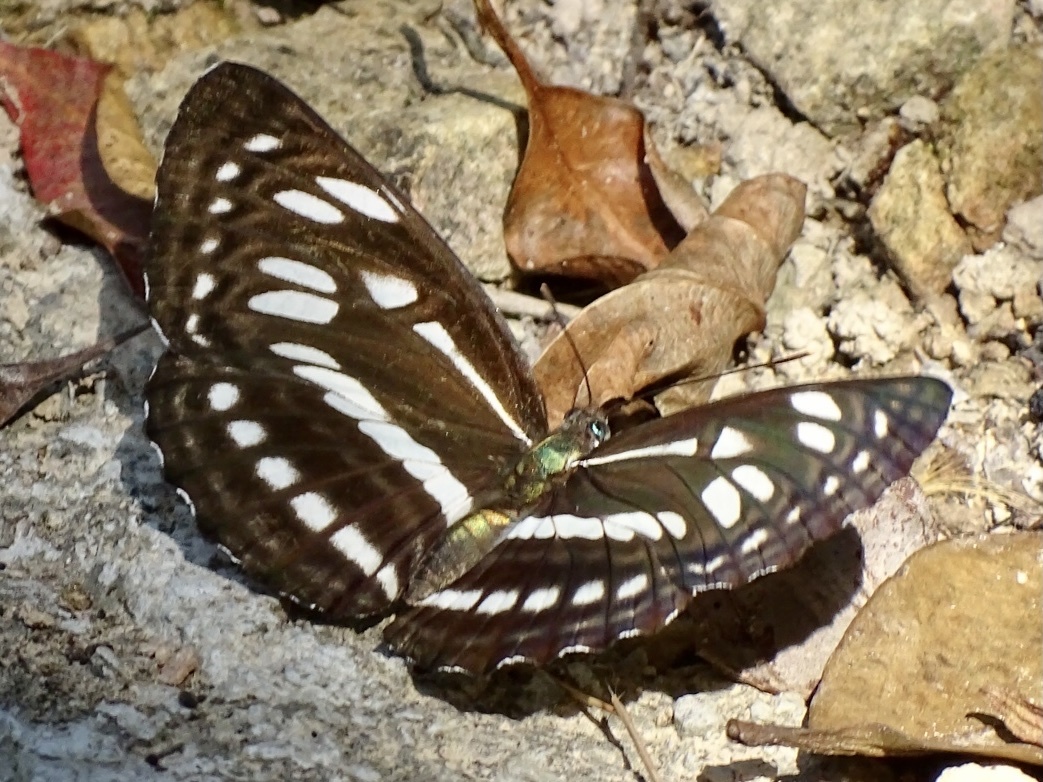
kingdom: Animalia
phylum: Arthropoda
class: Insecta
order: Lepidoptera
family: Nymphalidae
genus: Phaedyma
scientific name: Phaedyma columella
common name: Short banded sailer
